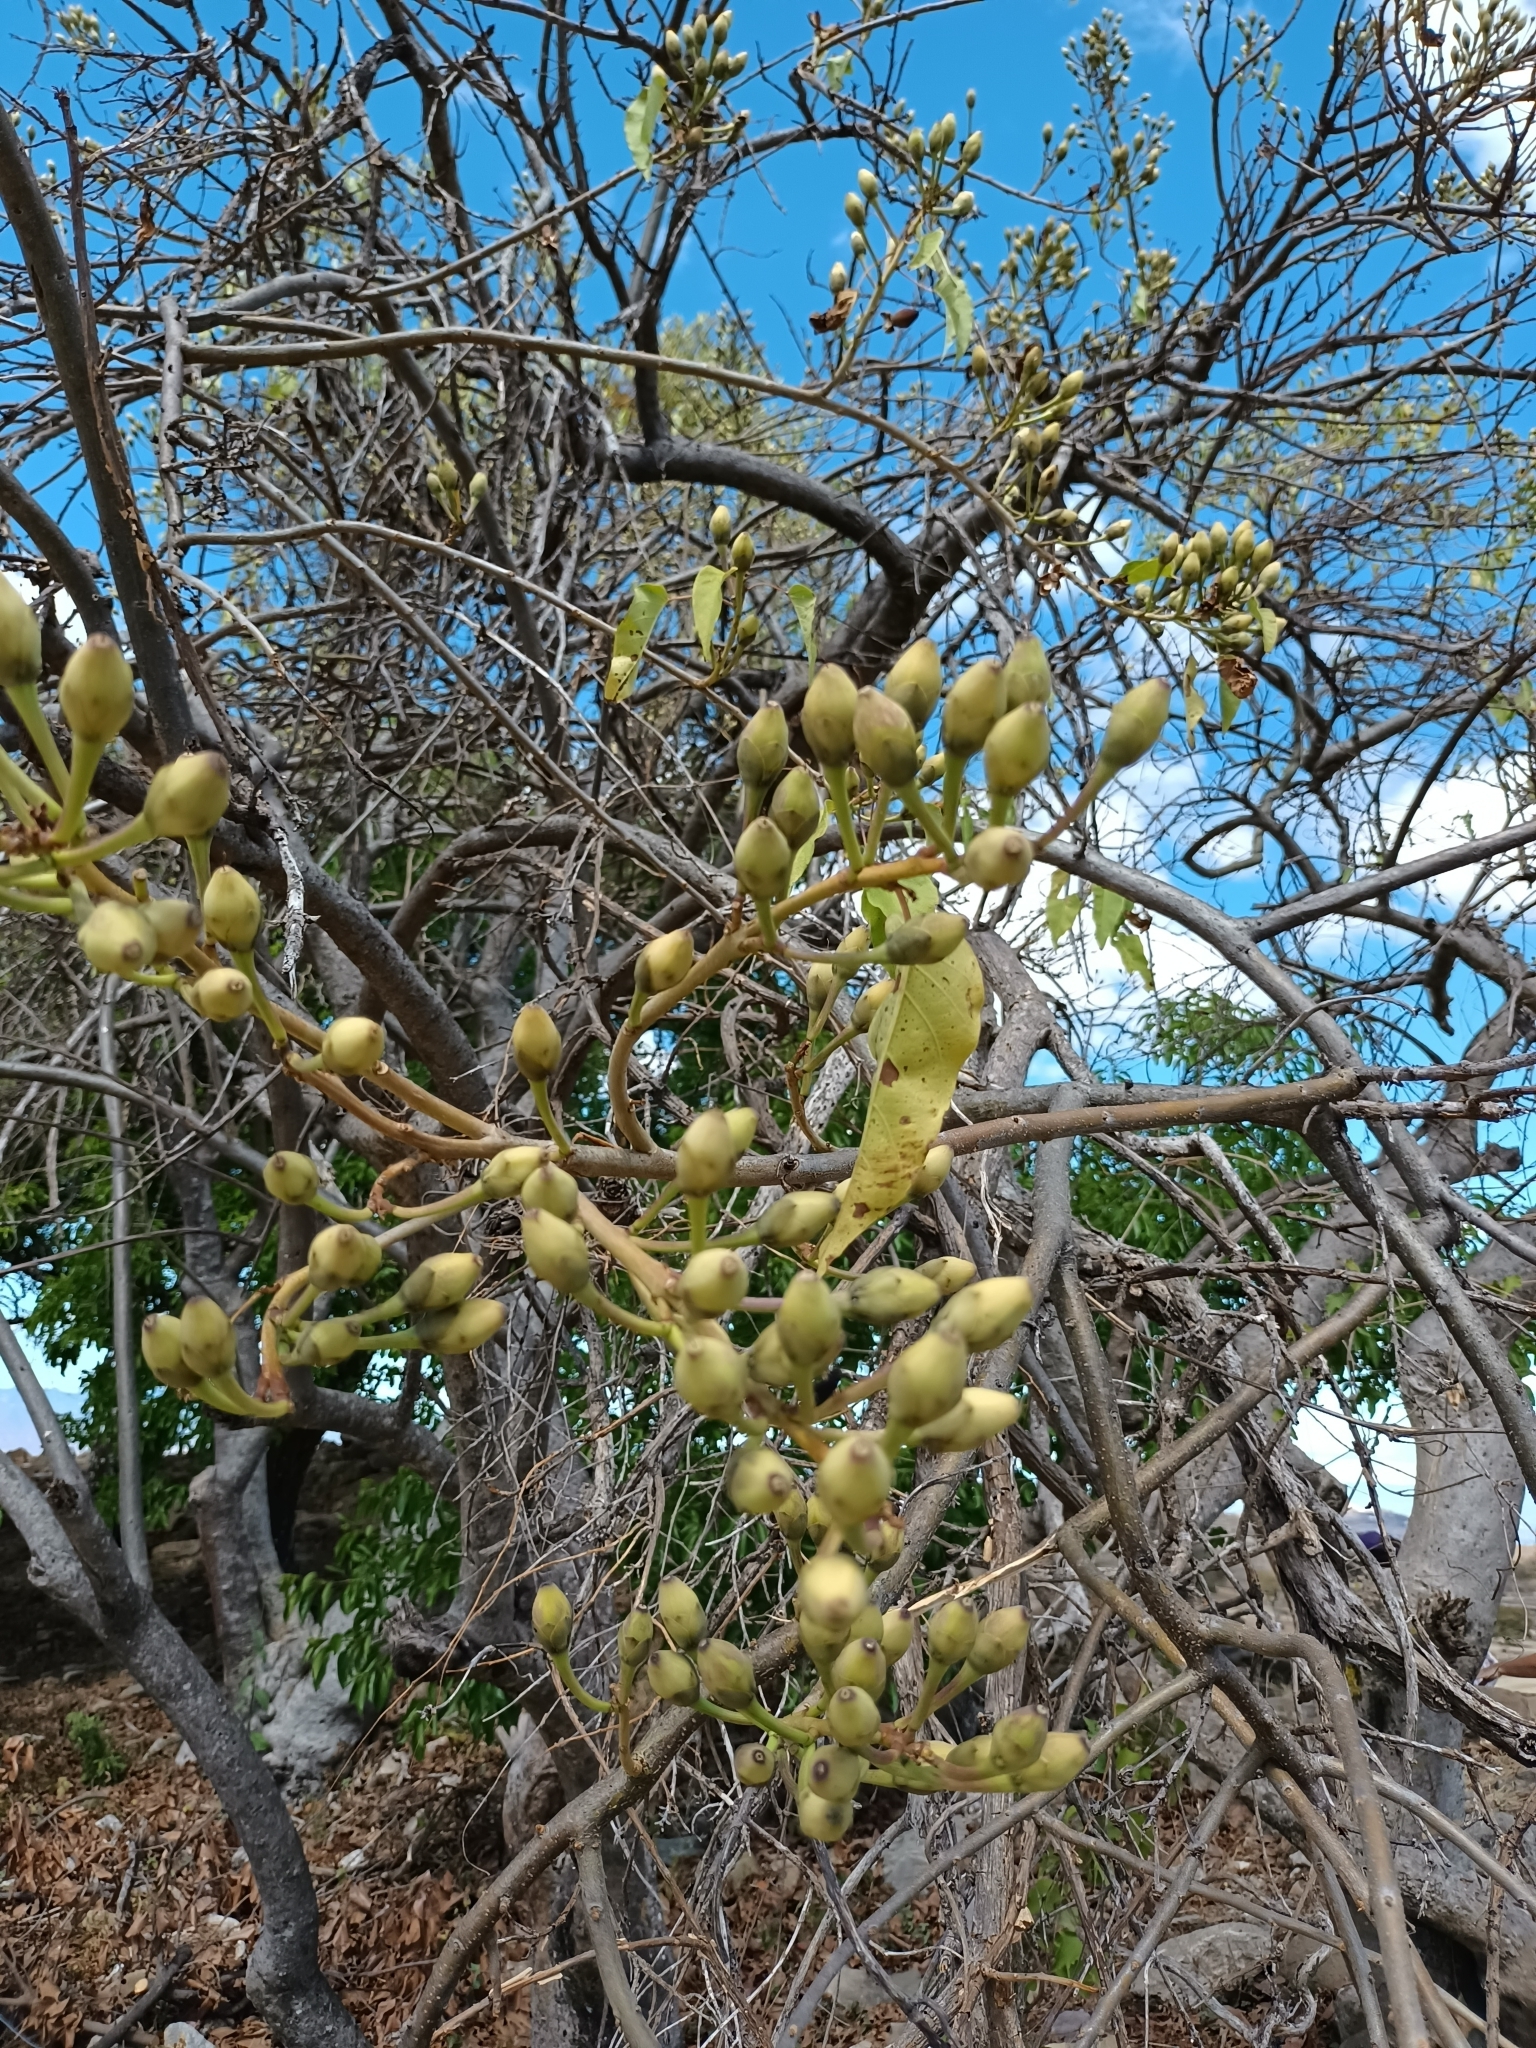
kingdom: Plantae
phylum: Tracheophyta
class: Magnoliopsida
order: Solanales
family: Convolvulaceae
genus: Ipomoea
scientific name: Ipomoea pauciflora
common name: Tree morningglory
